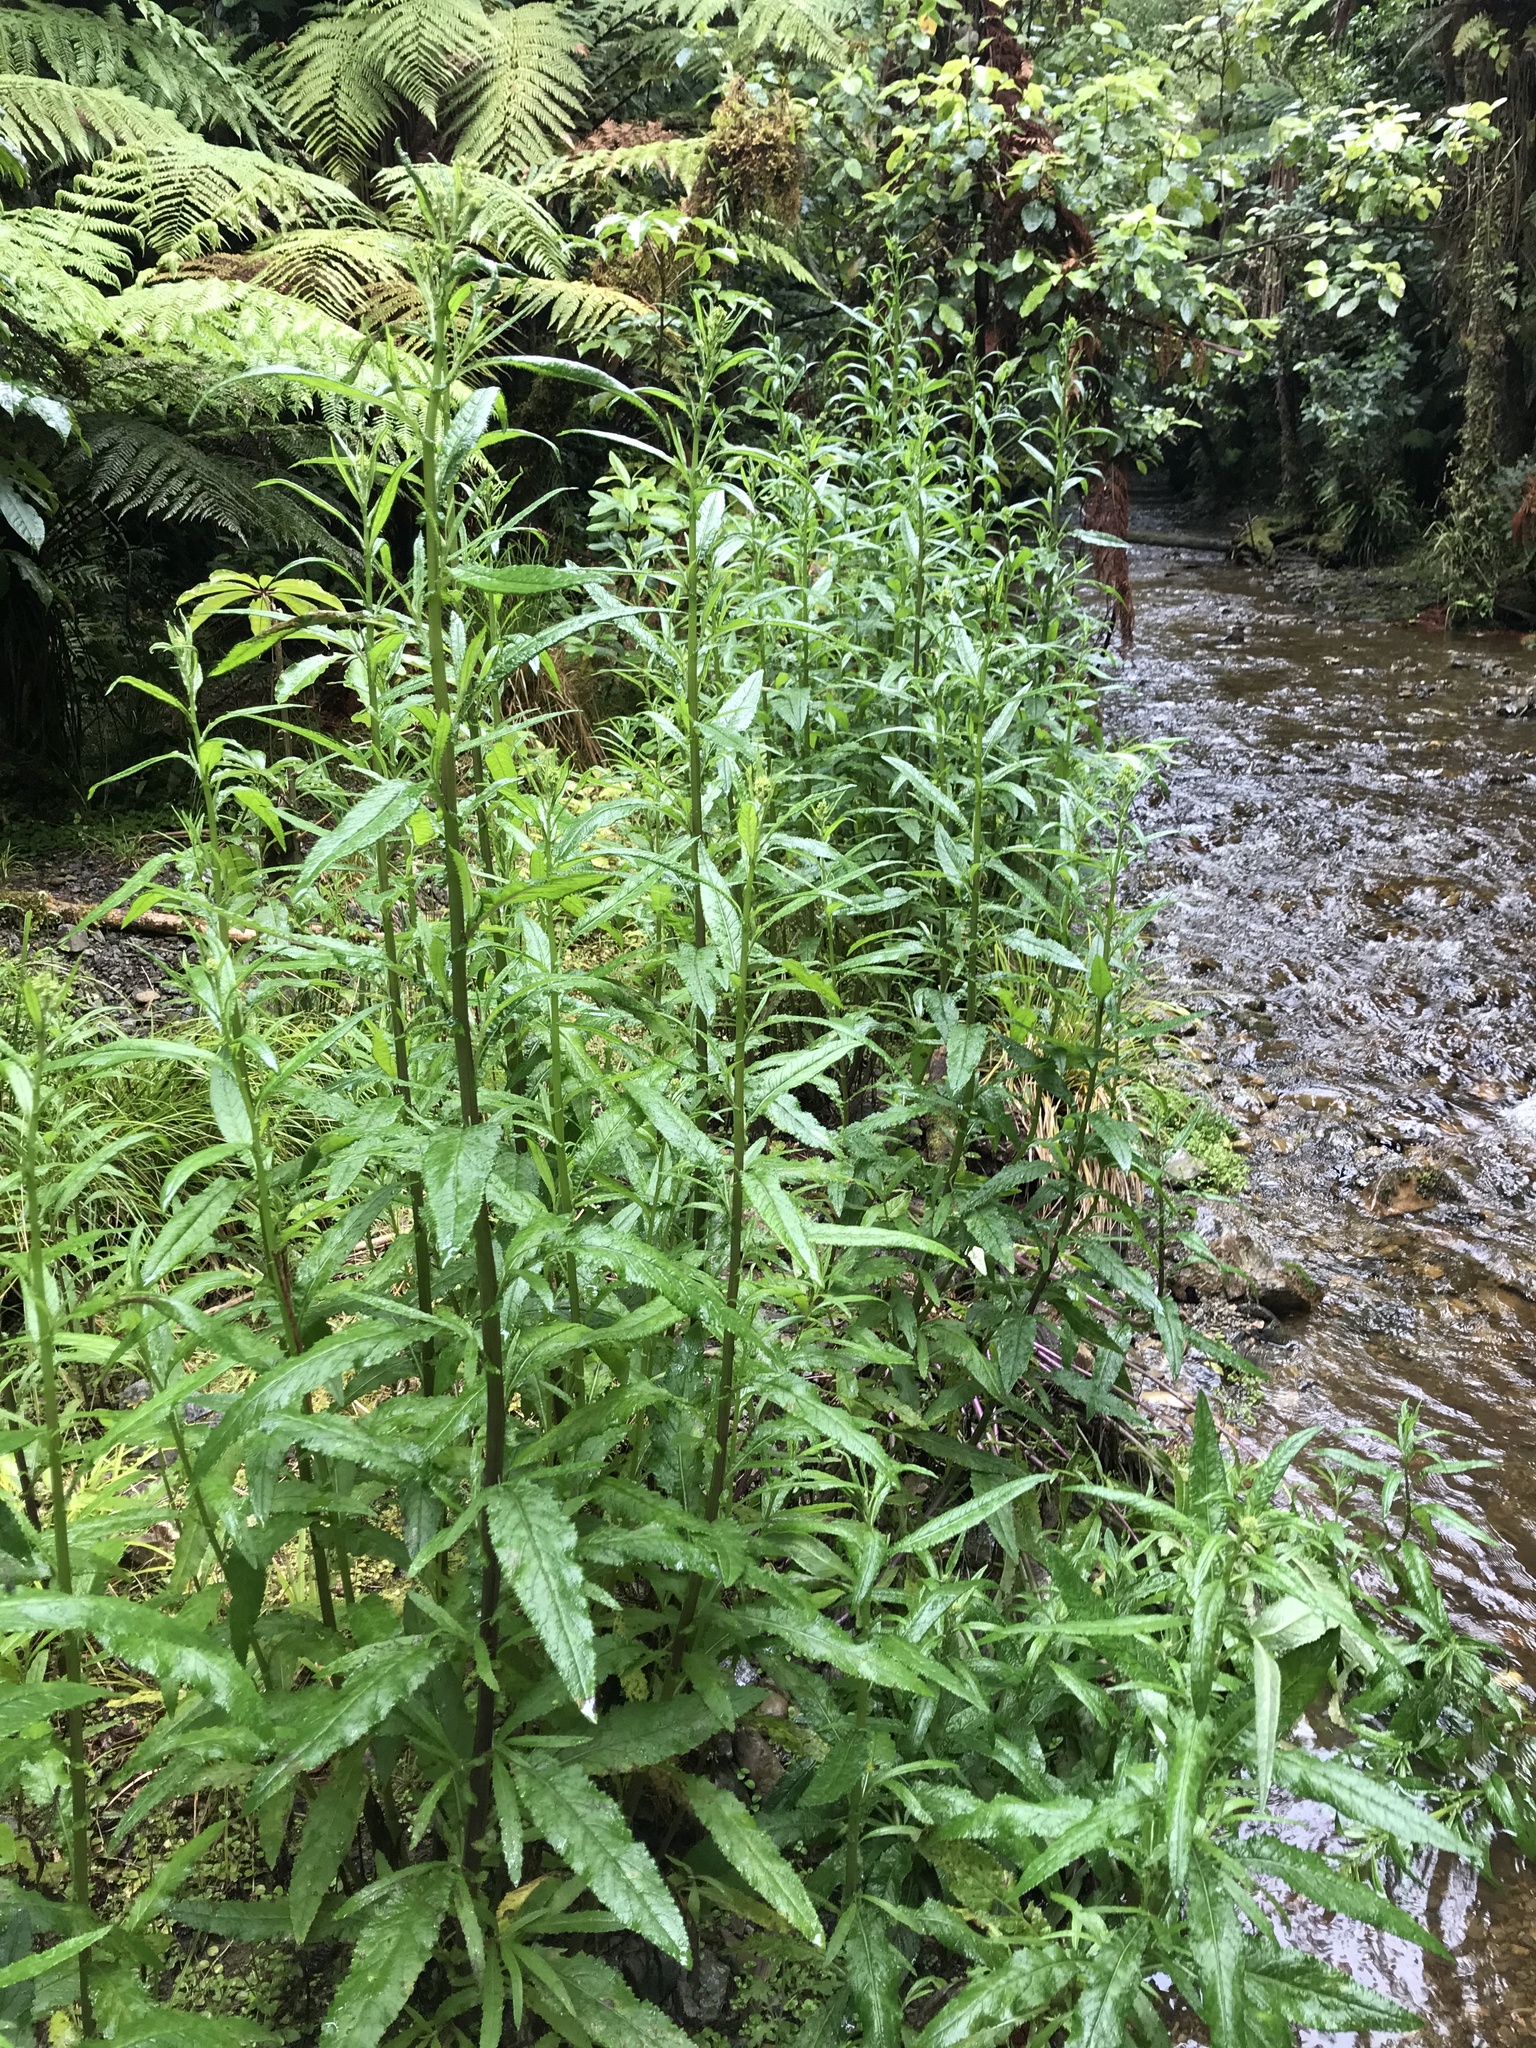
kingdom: Plantae
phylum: Tracheophyta
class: Magnoliopsida
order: Asterales
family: Asteraceae
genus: Senecio
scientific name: Senecio minimus
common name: Toothed fireweed
